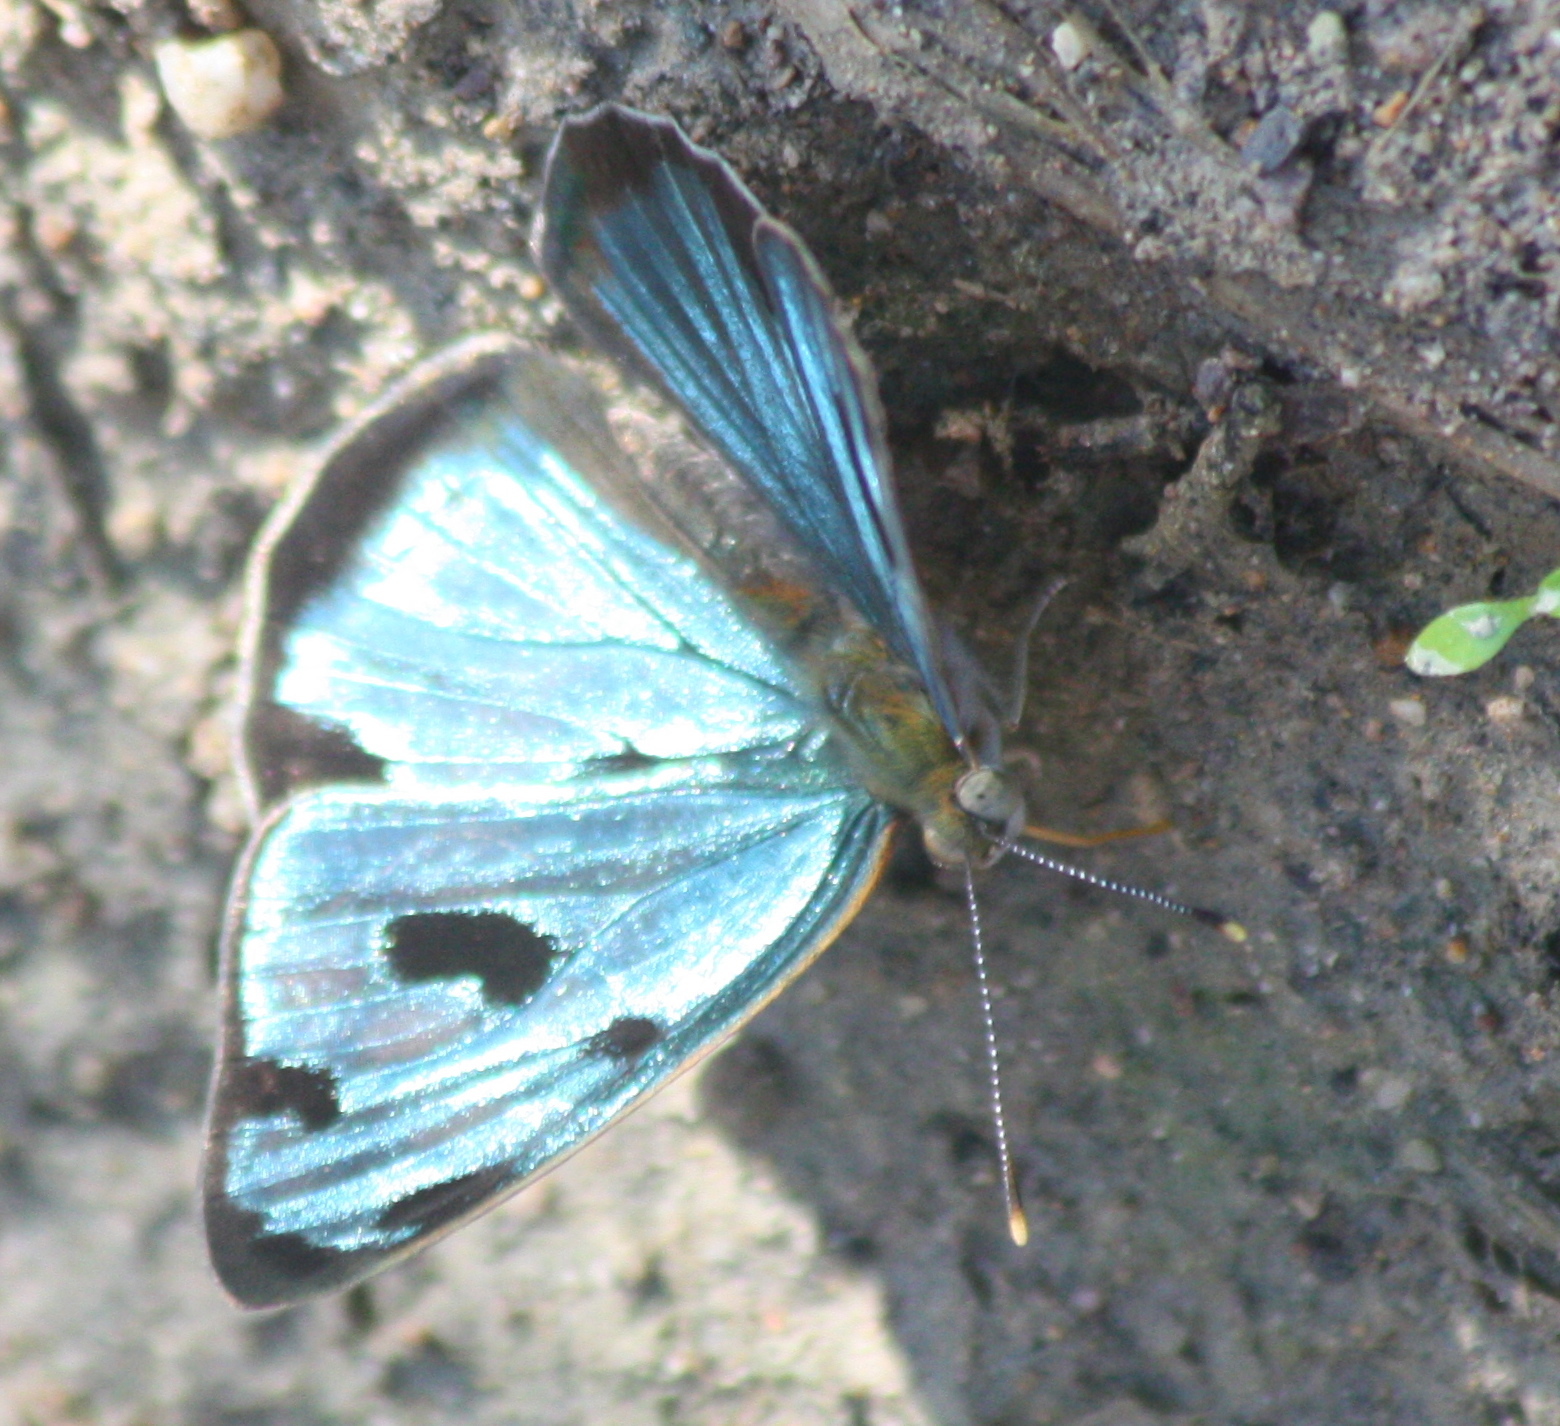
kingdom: Animalia
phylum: Arthropoda
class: Insecta
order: Lepidoptera
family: Nymphalidae
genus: Dynamine
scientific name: Dynamine mylitta
